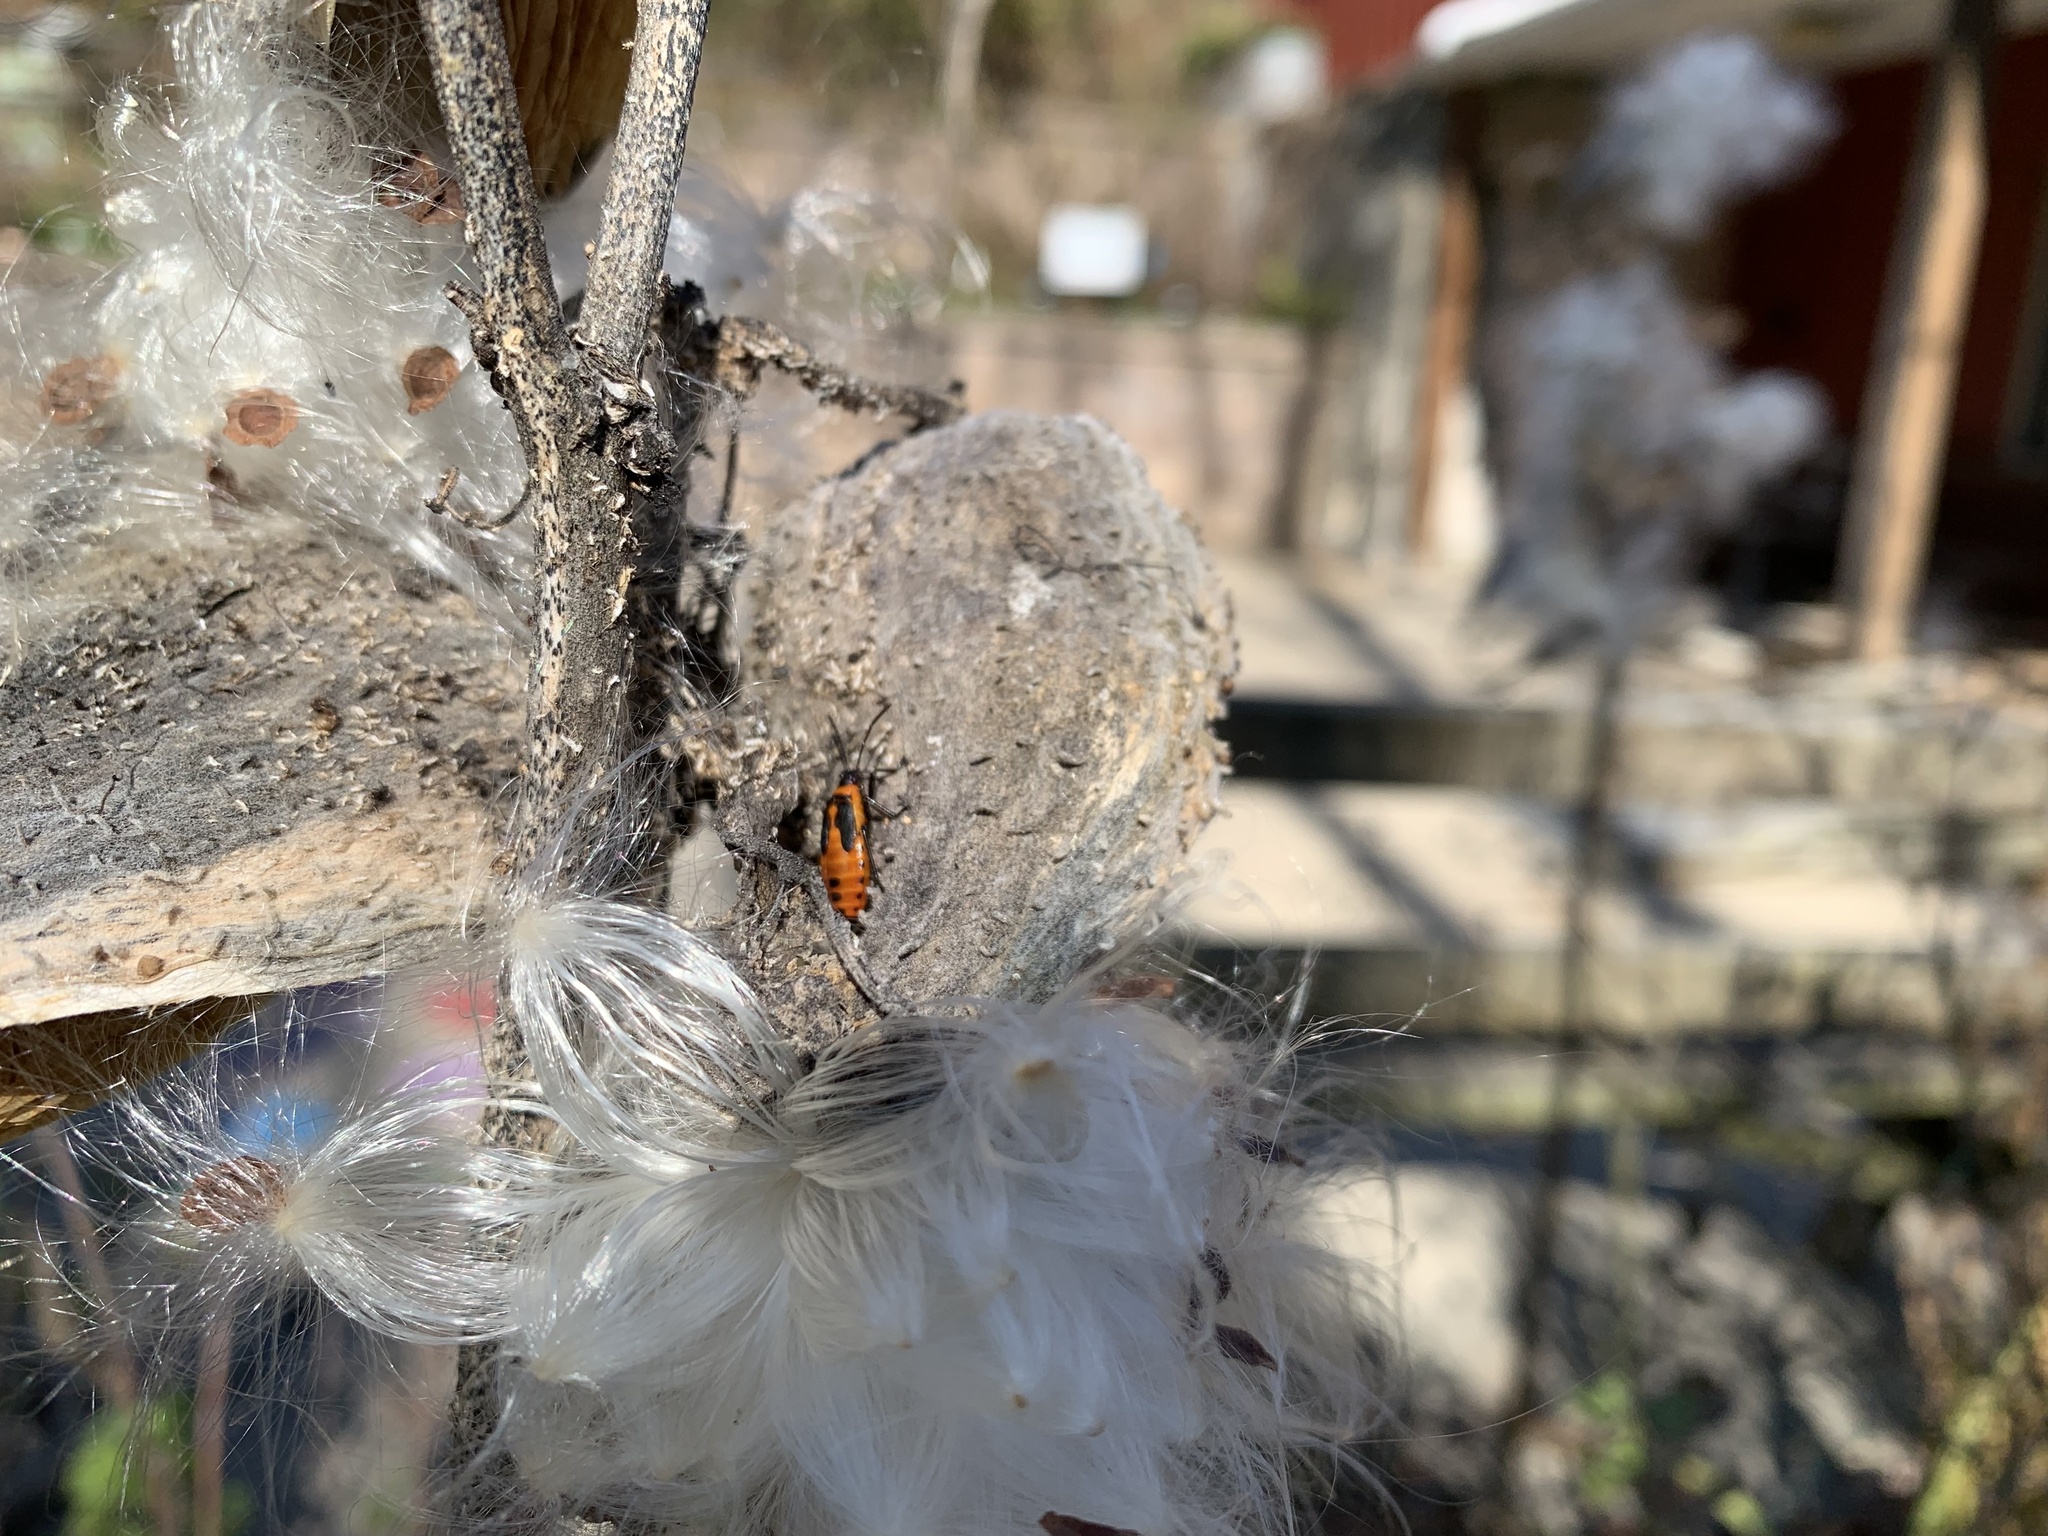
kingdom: Animalia
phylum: Arthropoda
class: Insecta
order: Hemiptera
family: Lygaeidae
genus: Oncopeltus
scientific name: Oncopeltus fasciatus
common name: Large milkweed bug
